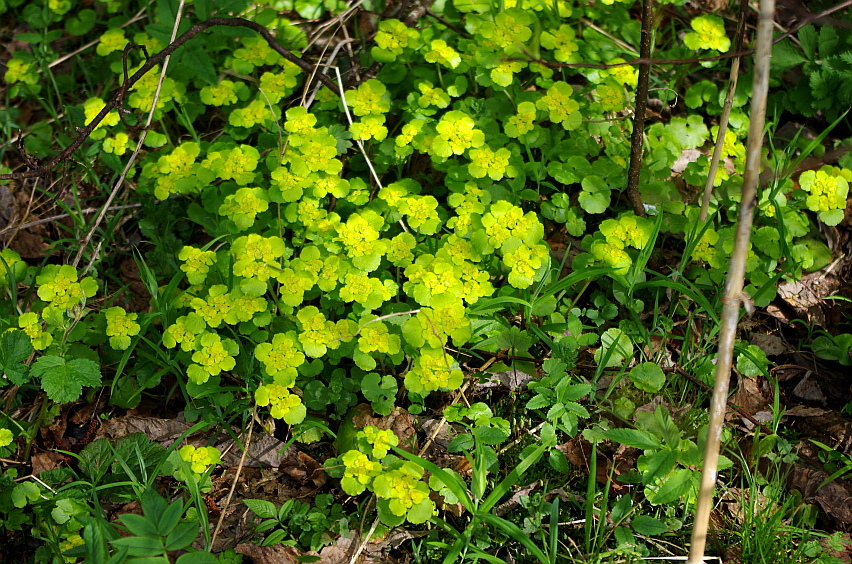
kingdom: Plantae
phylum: Tracheophyta
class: Magnoliopsida
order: Saxifragales
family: Saxifragaceae
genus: Chrysosplenium
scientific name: Chrysosplenium alternifolium
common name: Alternate-leaved golden-saxifrage
